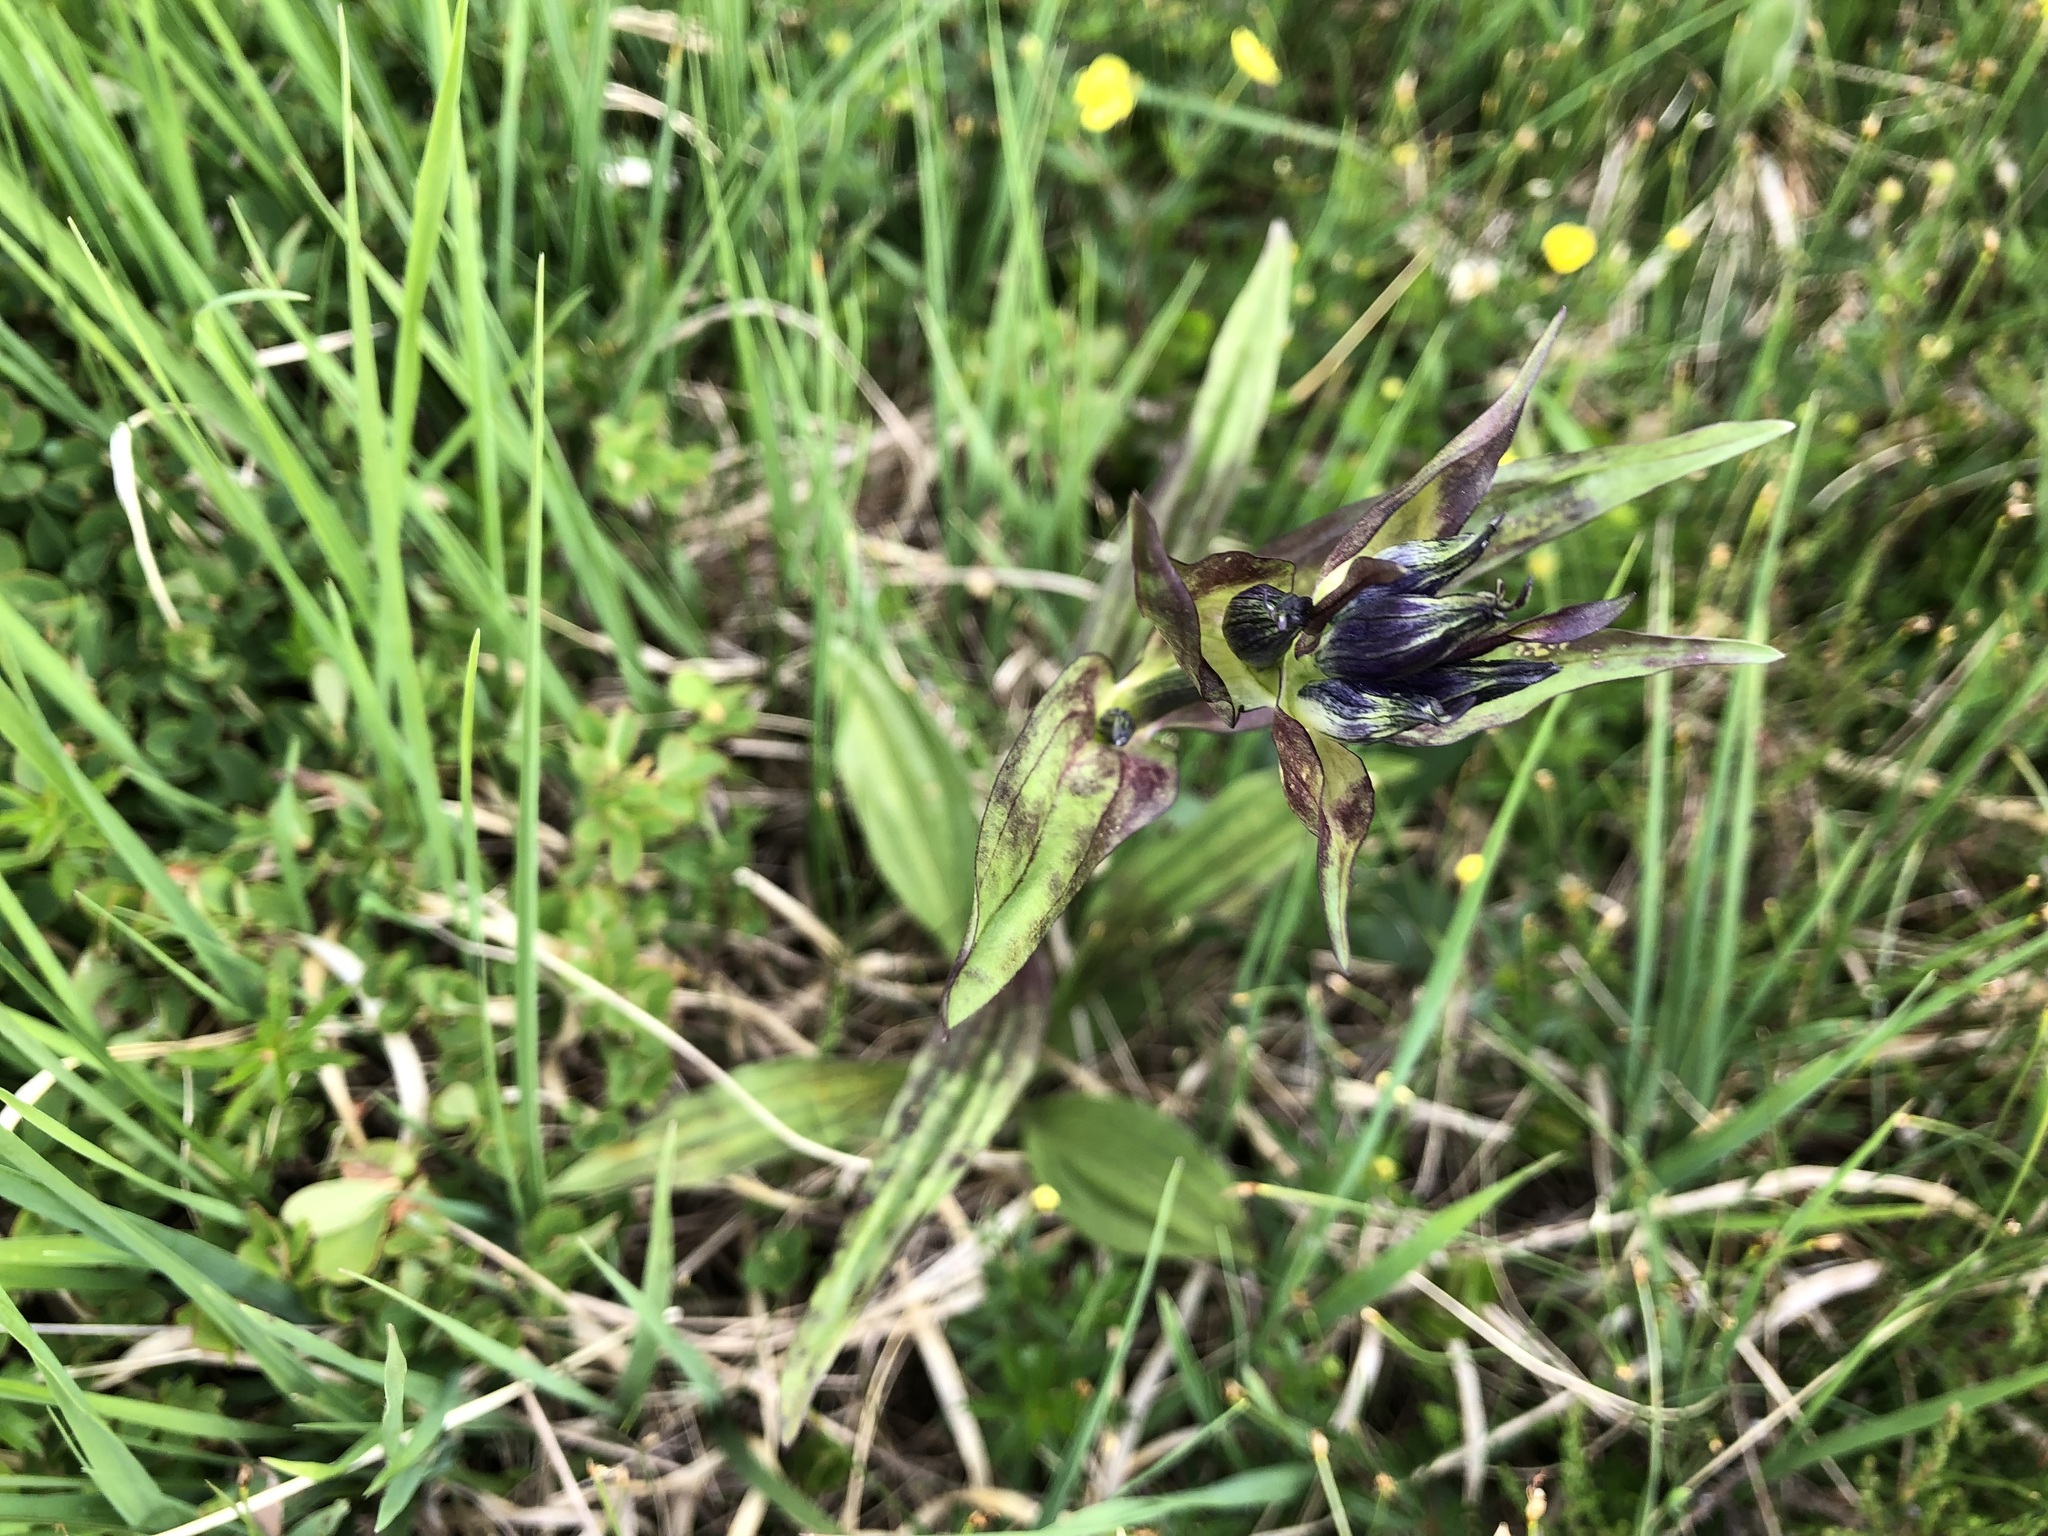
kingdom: Plantae
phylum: Tracheophyta
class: Magnoliopsida
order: Gentianales
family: Gentianaceae
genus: Gentiana
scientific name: Gentiana purpurea
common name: Purple gentian
